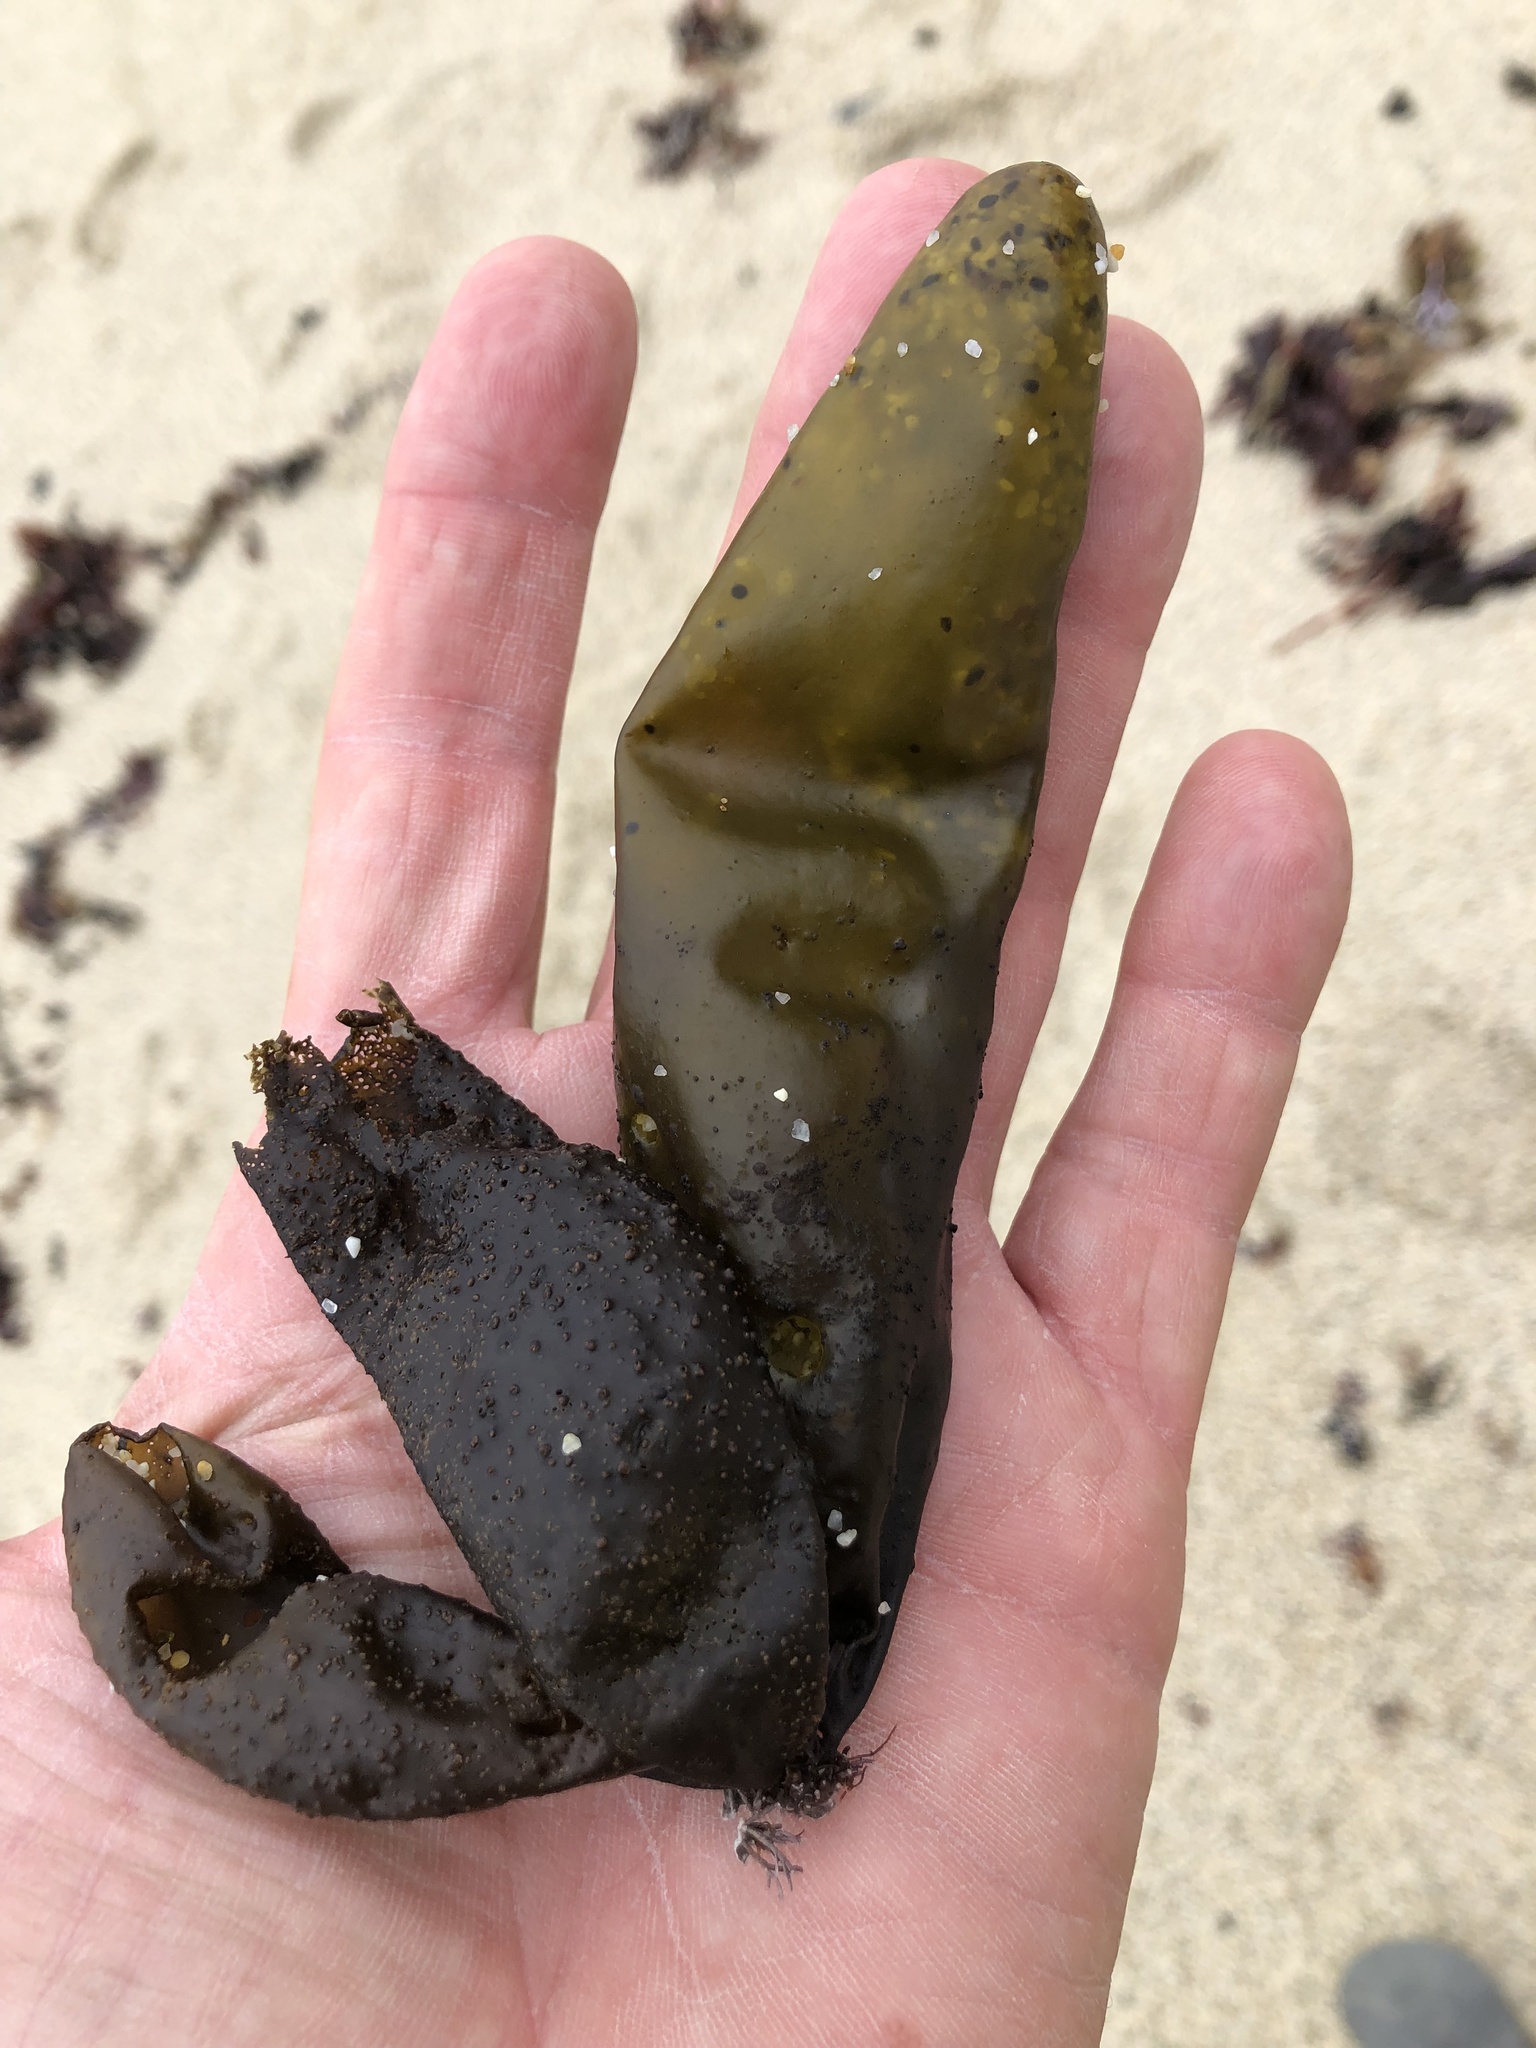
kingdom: Plantae
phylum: Rhodophyta
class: Florideophyceae
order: Palmariales
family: Palmariaceae
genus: Halosaccion
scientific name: Halosaccion glandiforme
